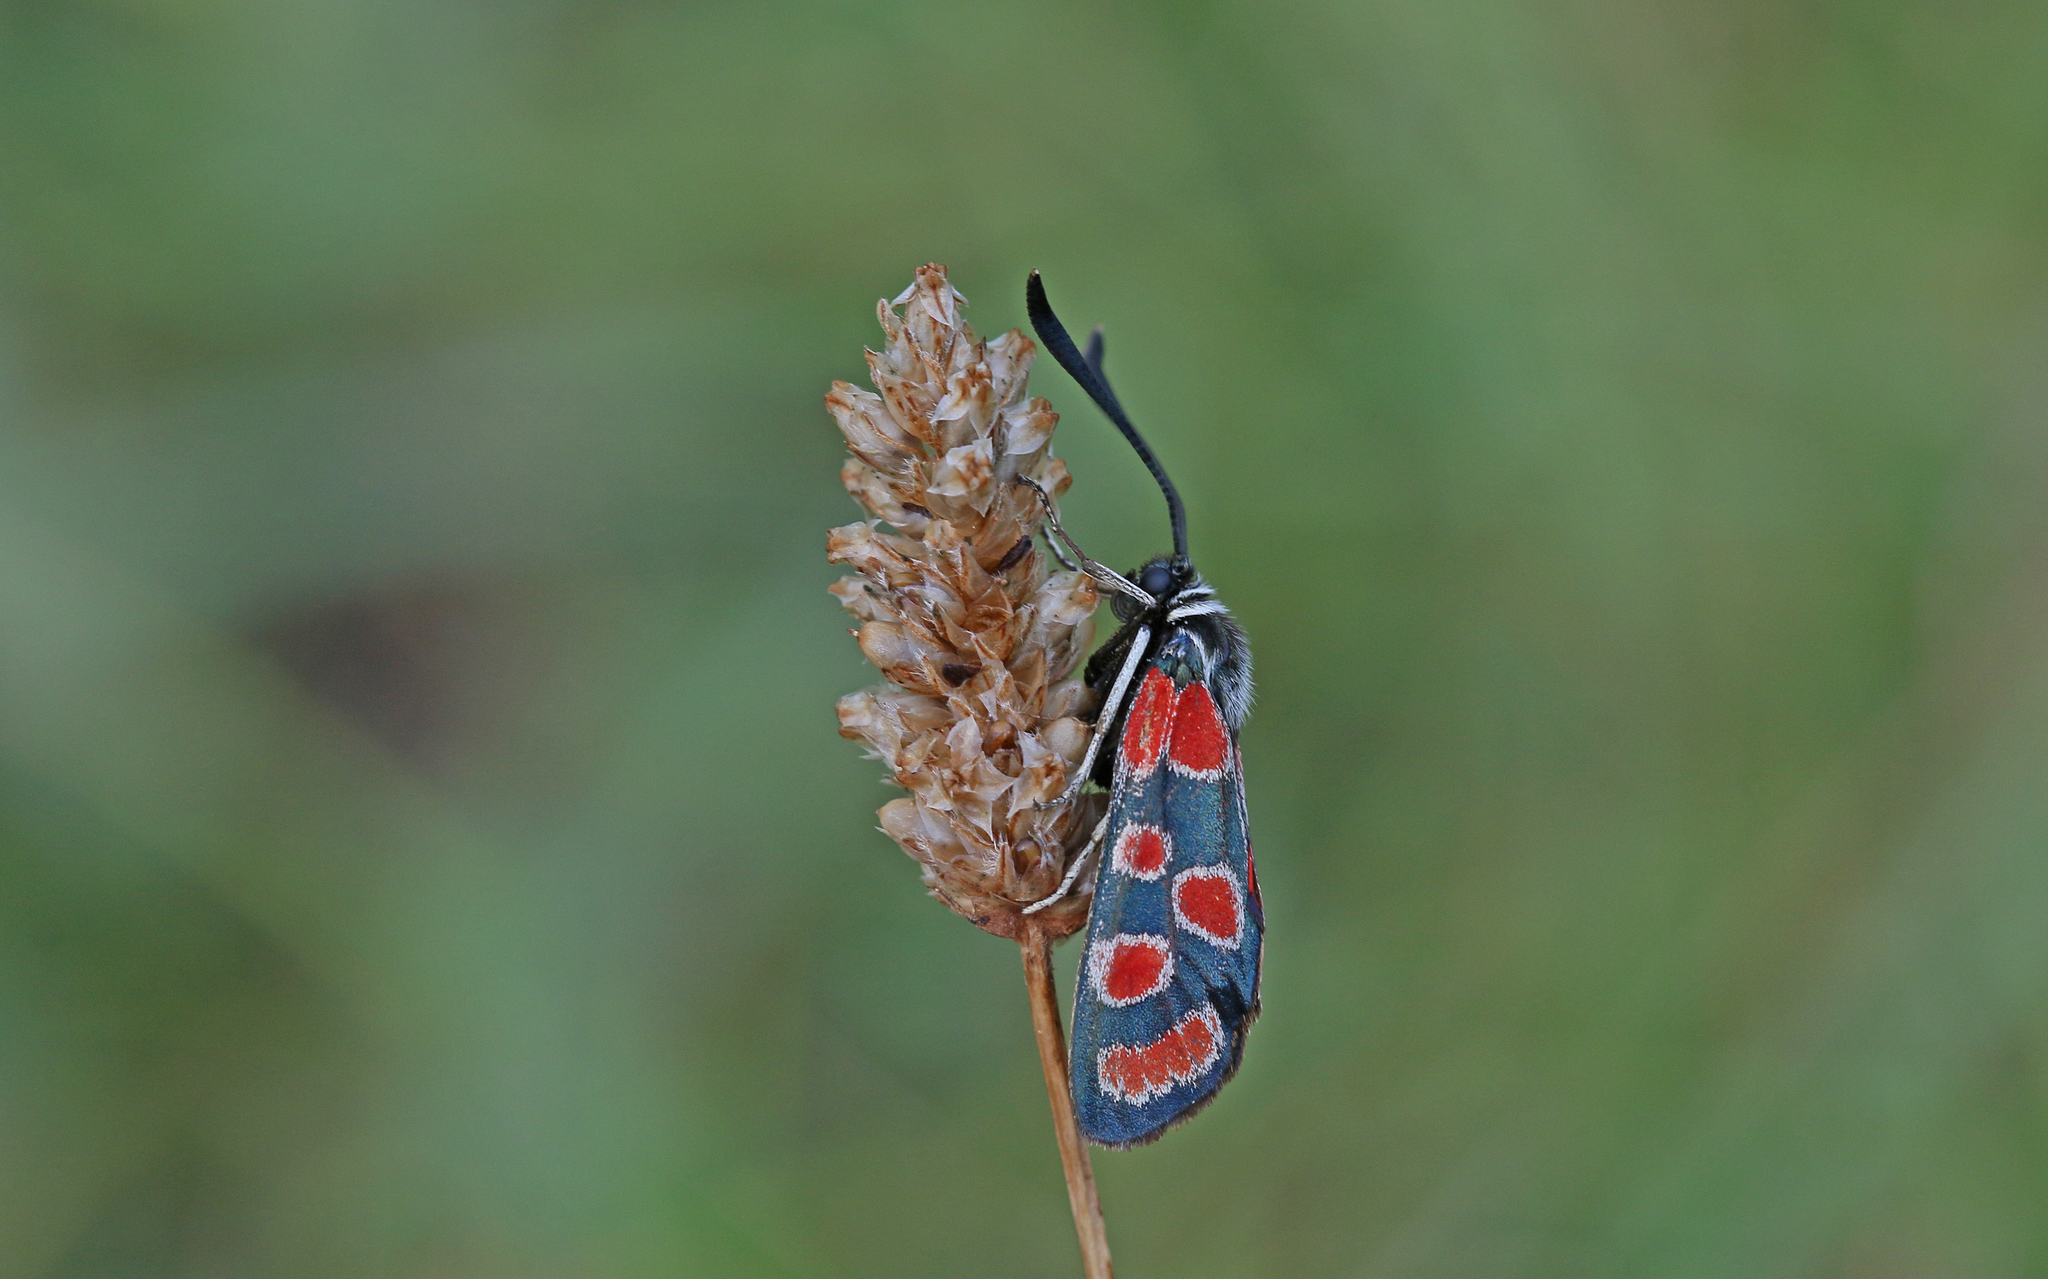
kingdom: Animalia
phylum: Arthropoda
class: Insecta
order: Lepidoptera
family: Zygaenidae
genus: Zygaena
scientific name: Zygaena carniolica
